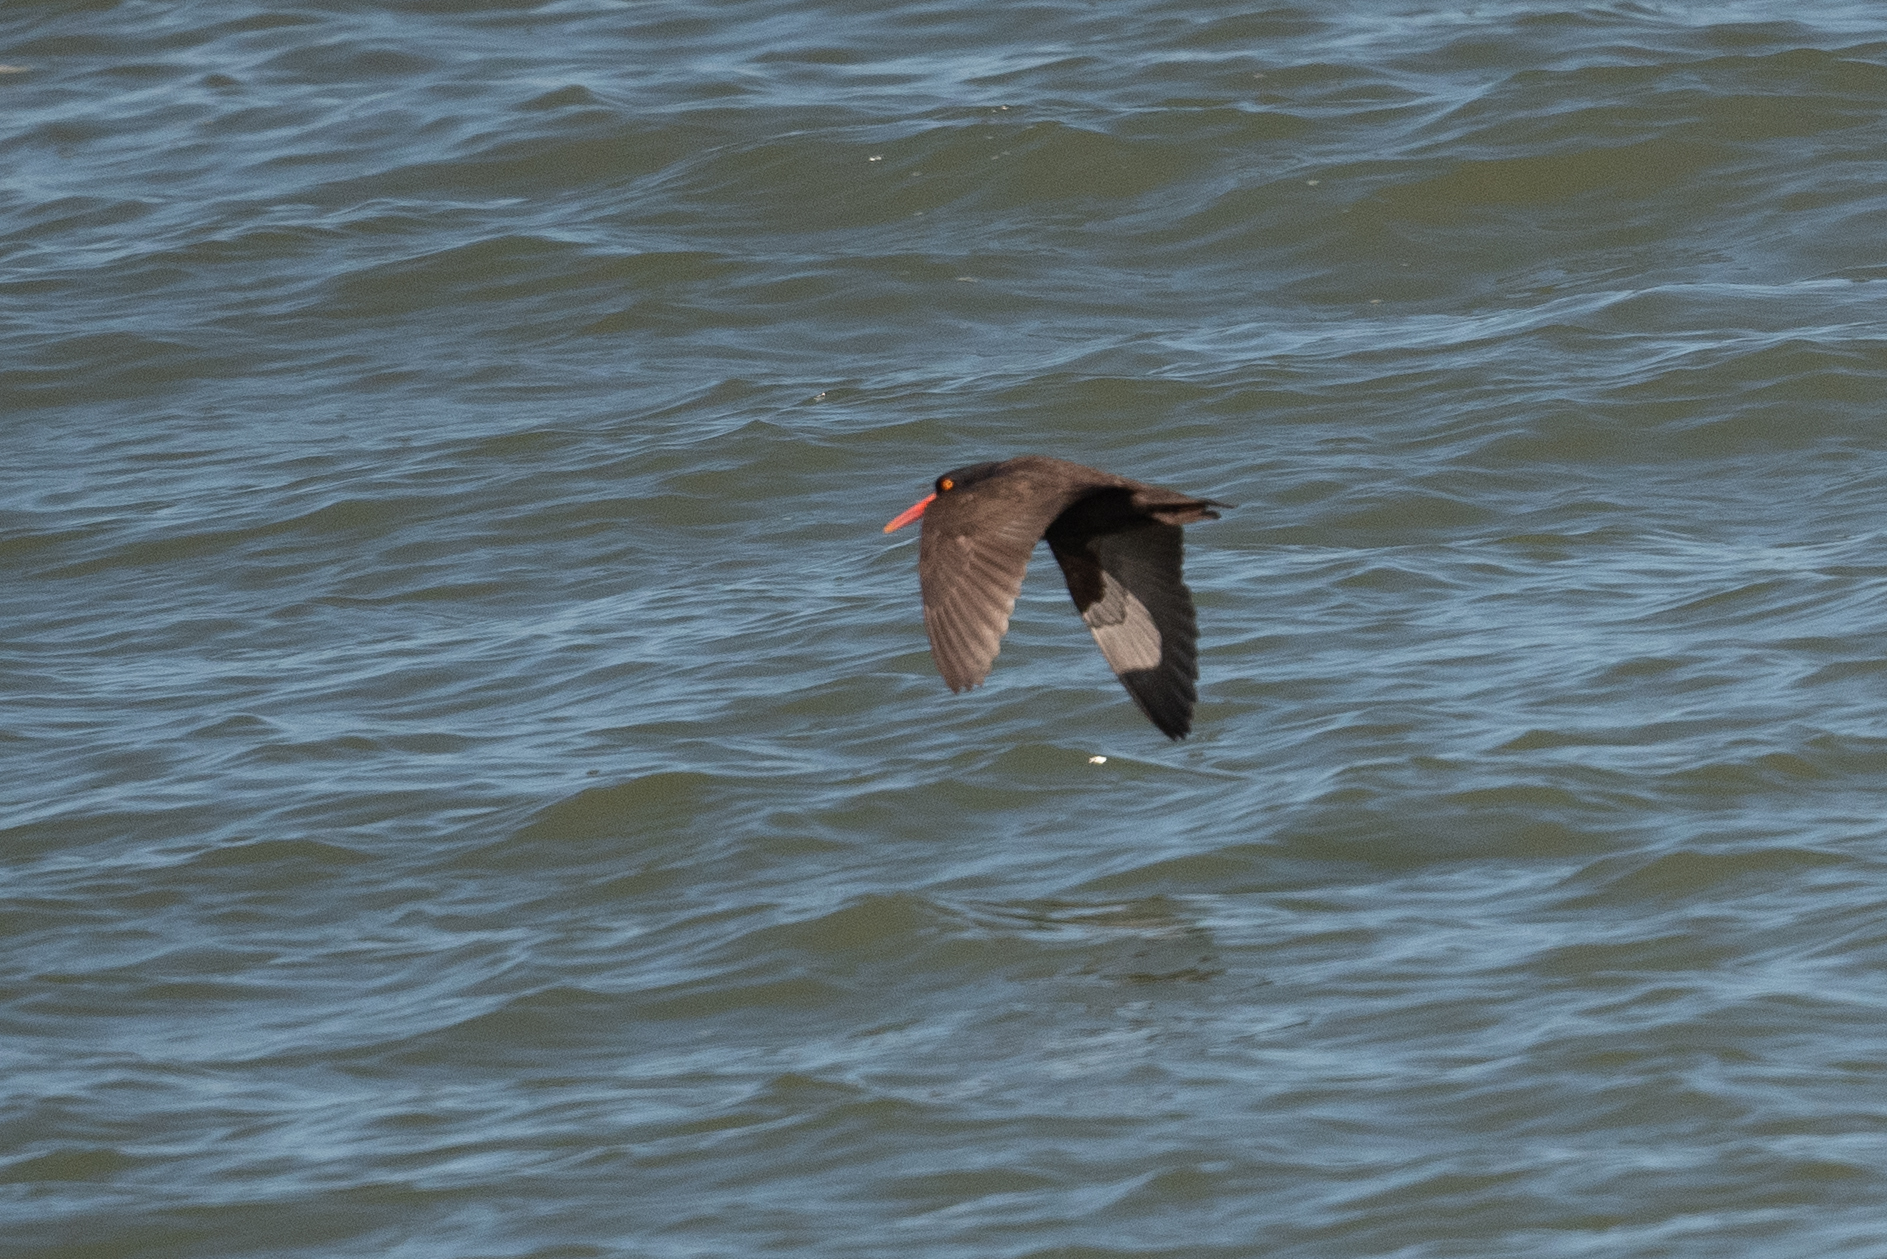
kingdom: Animalia
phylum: Chordata
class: Aves
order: Charadriiformes
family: Haematopodidae
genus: Haematopus
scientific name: Haematopus bachmani
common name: Black oystercatcher
